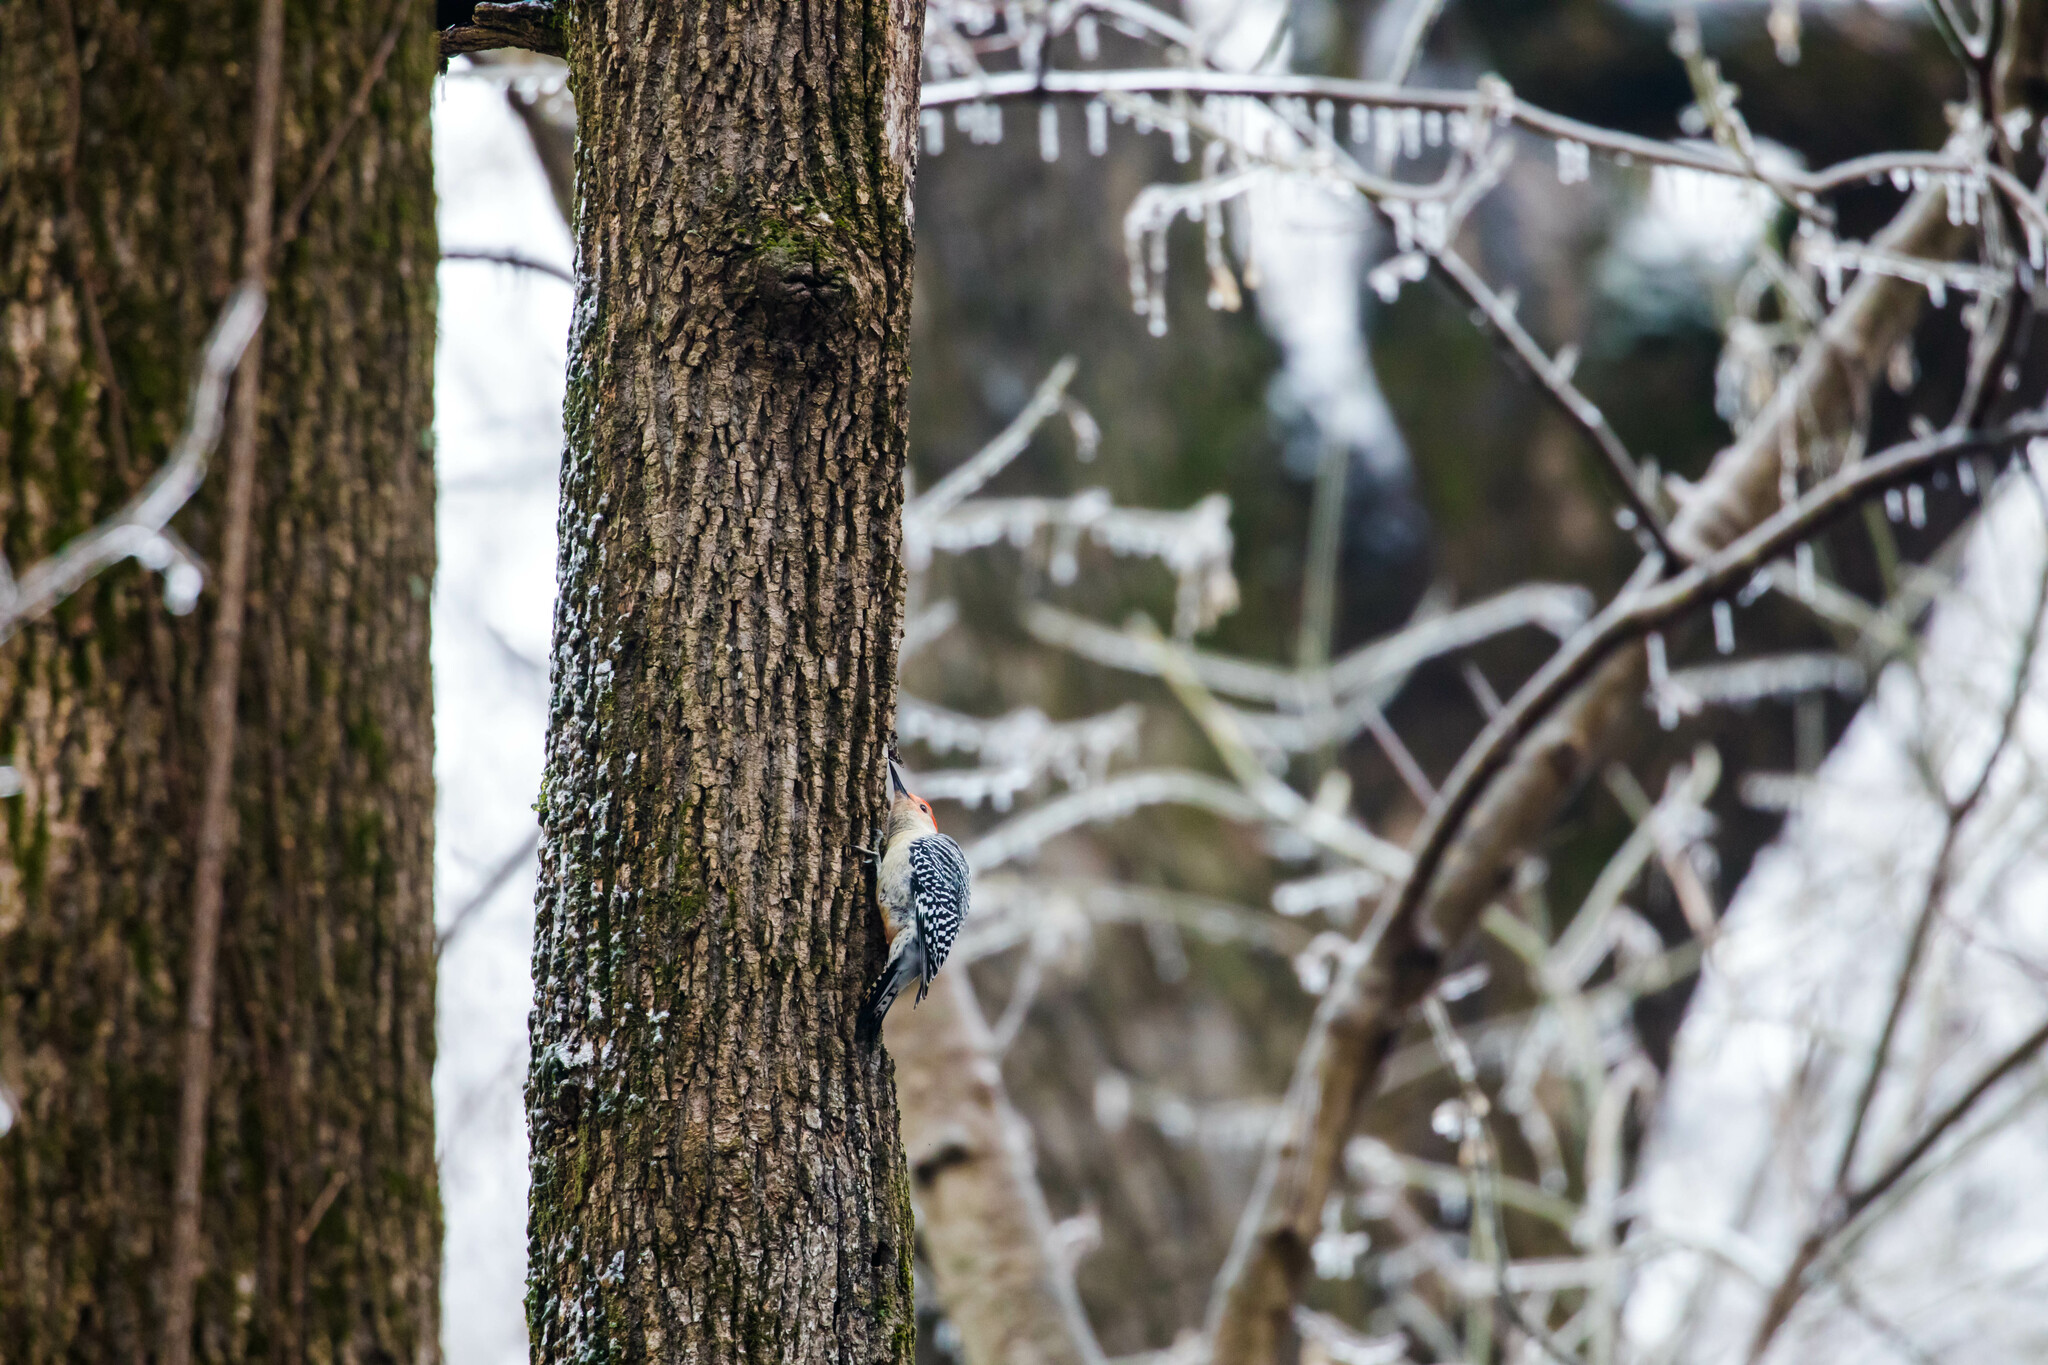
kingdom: Animalia
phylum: Chordata
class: Aves
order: Piciformes
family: Picidae
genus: Melanerpes
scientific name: Melanerpes carolinus
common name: Red-bellied woodpecker
